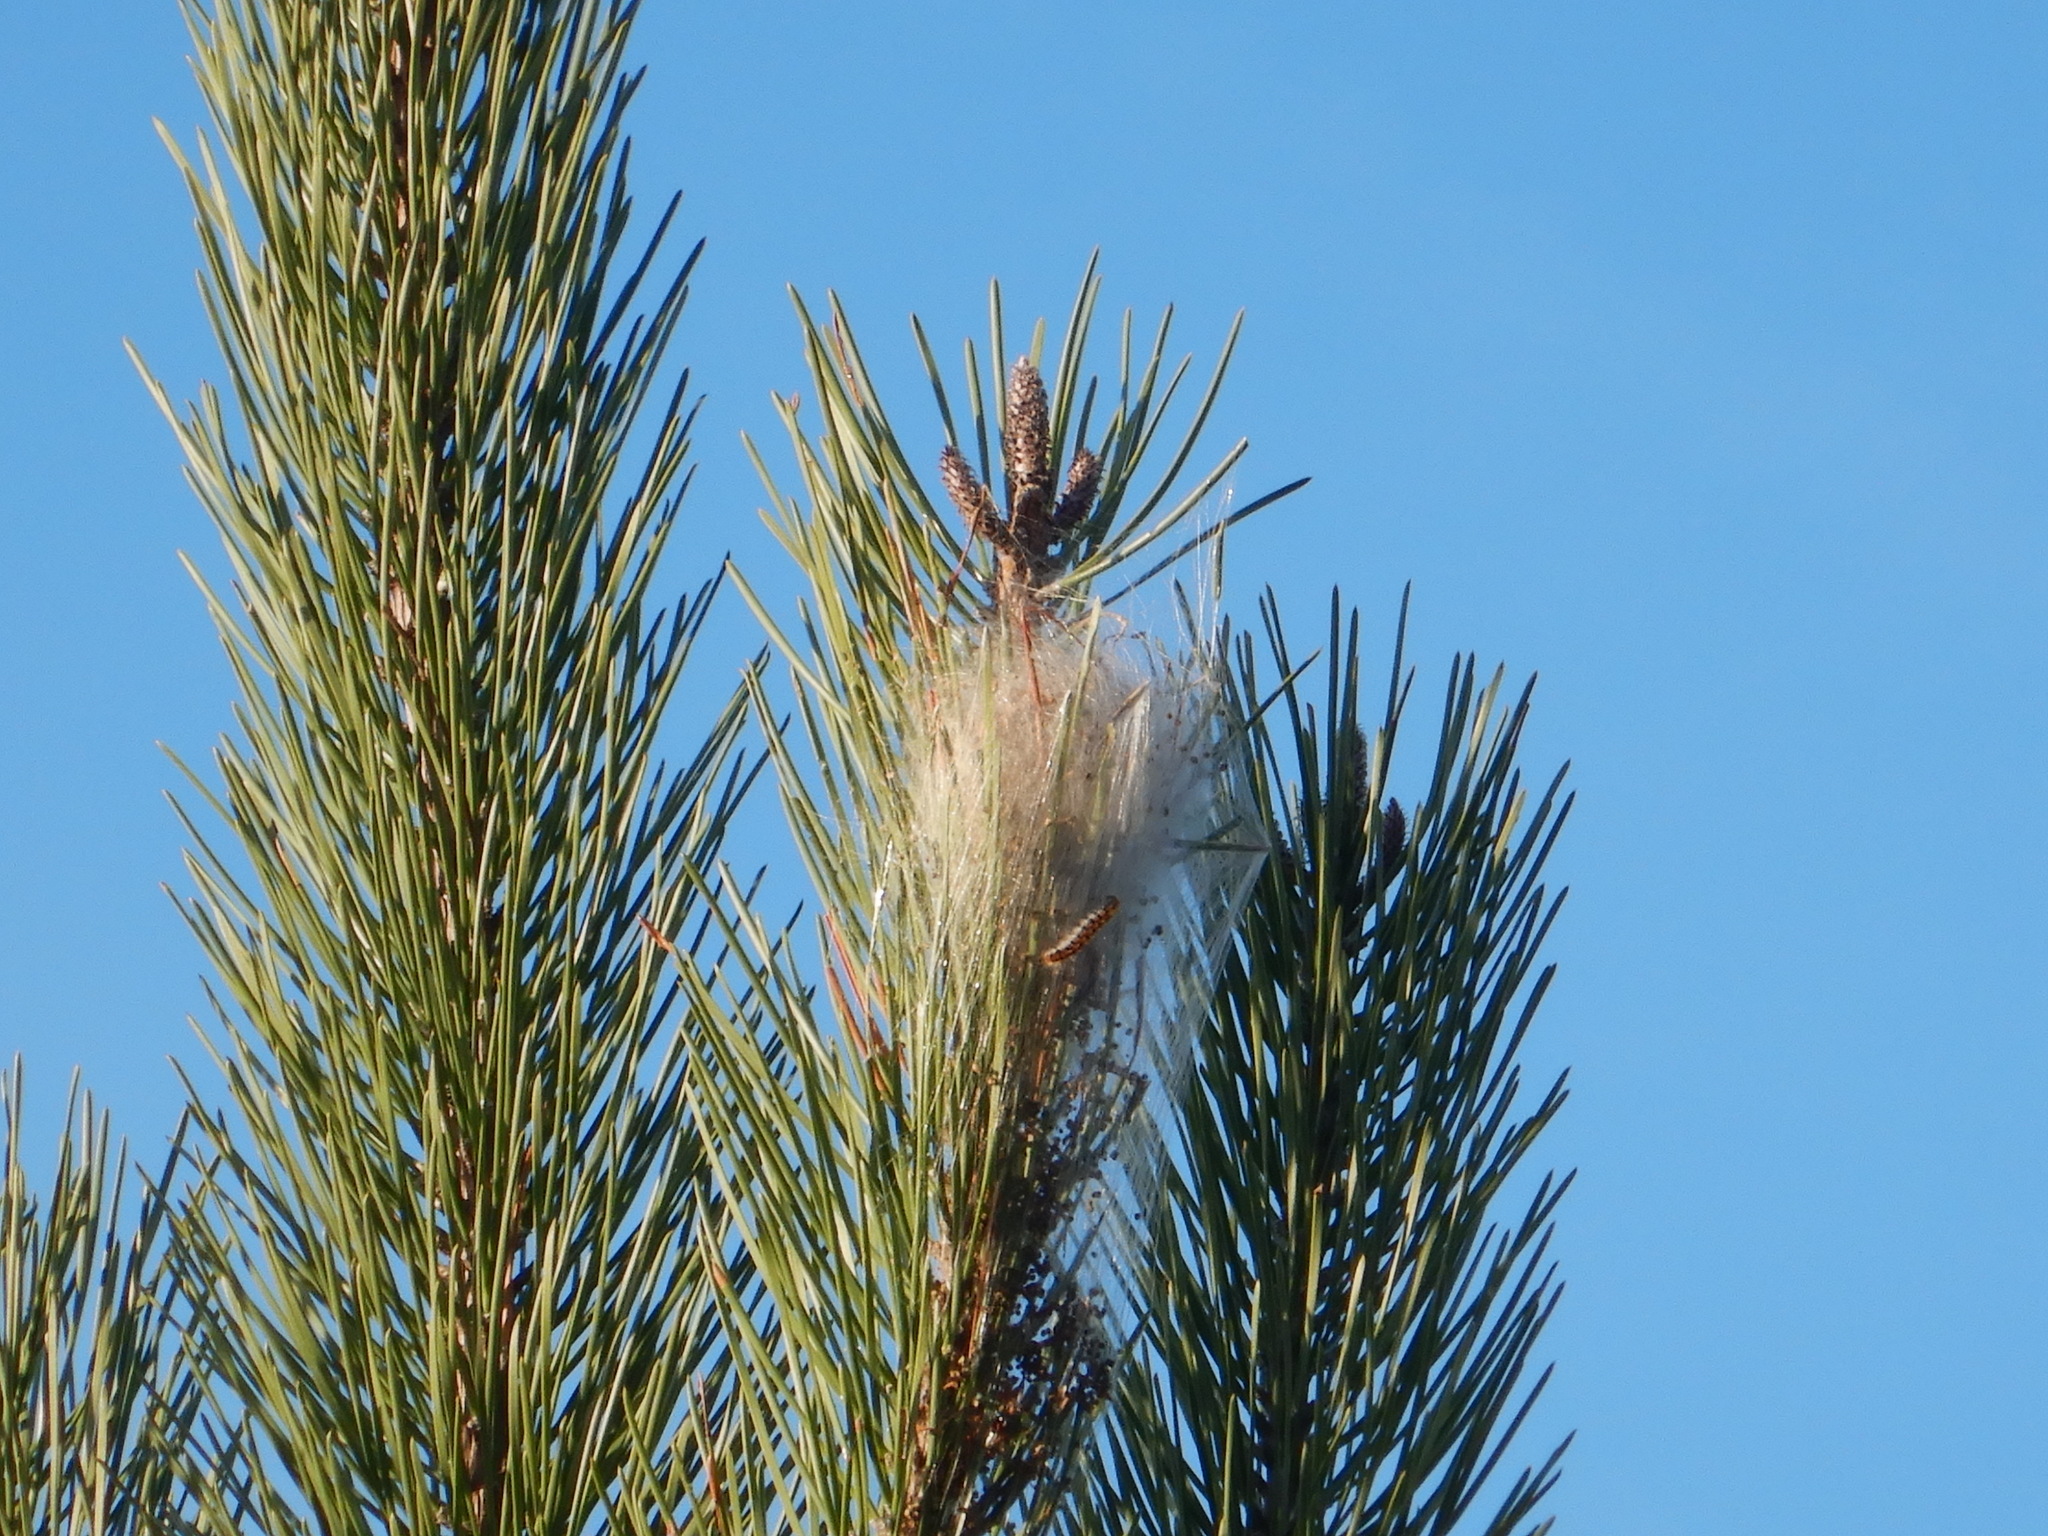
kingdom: Animalia
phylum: Arthropoda
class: Insecta
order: Lepidoptera
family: Notodontidae
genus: Thaumetopoea
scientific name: Thaumetopoea pityocampa
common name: Pine processionary
